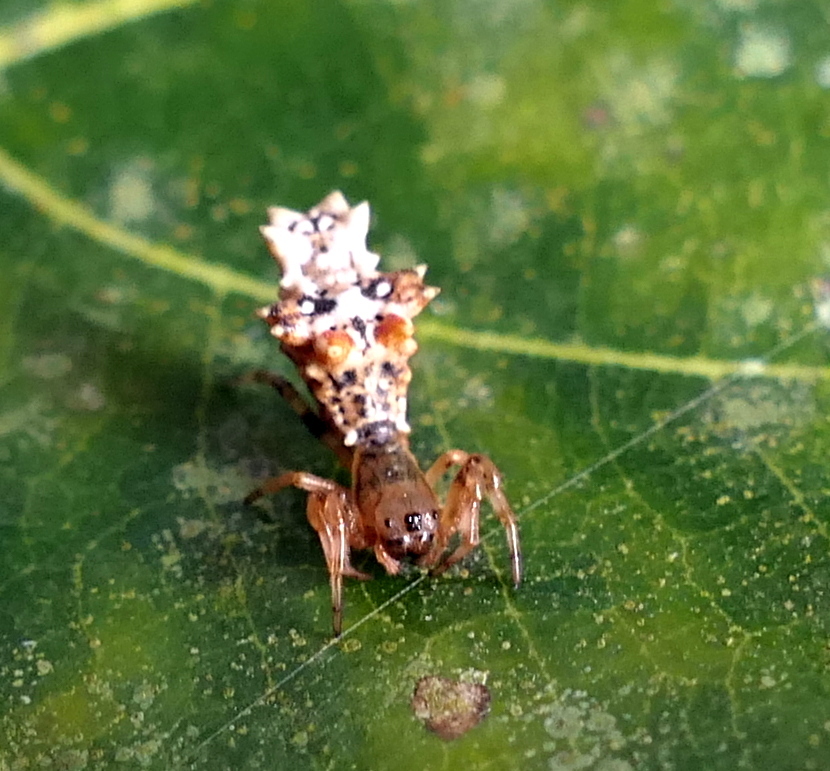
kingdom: Animalia
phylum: Arthropoda
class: Arachnida
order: Araneae
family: Araneidae
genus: Micrathena
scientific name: Micrathena horrida
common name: Orb weavers
